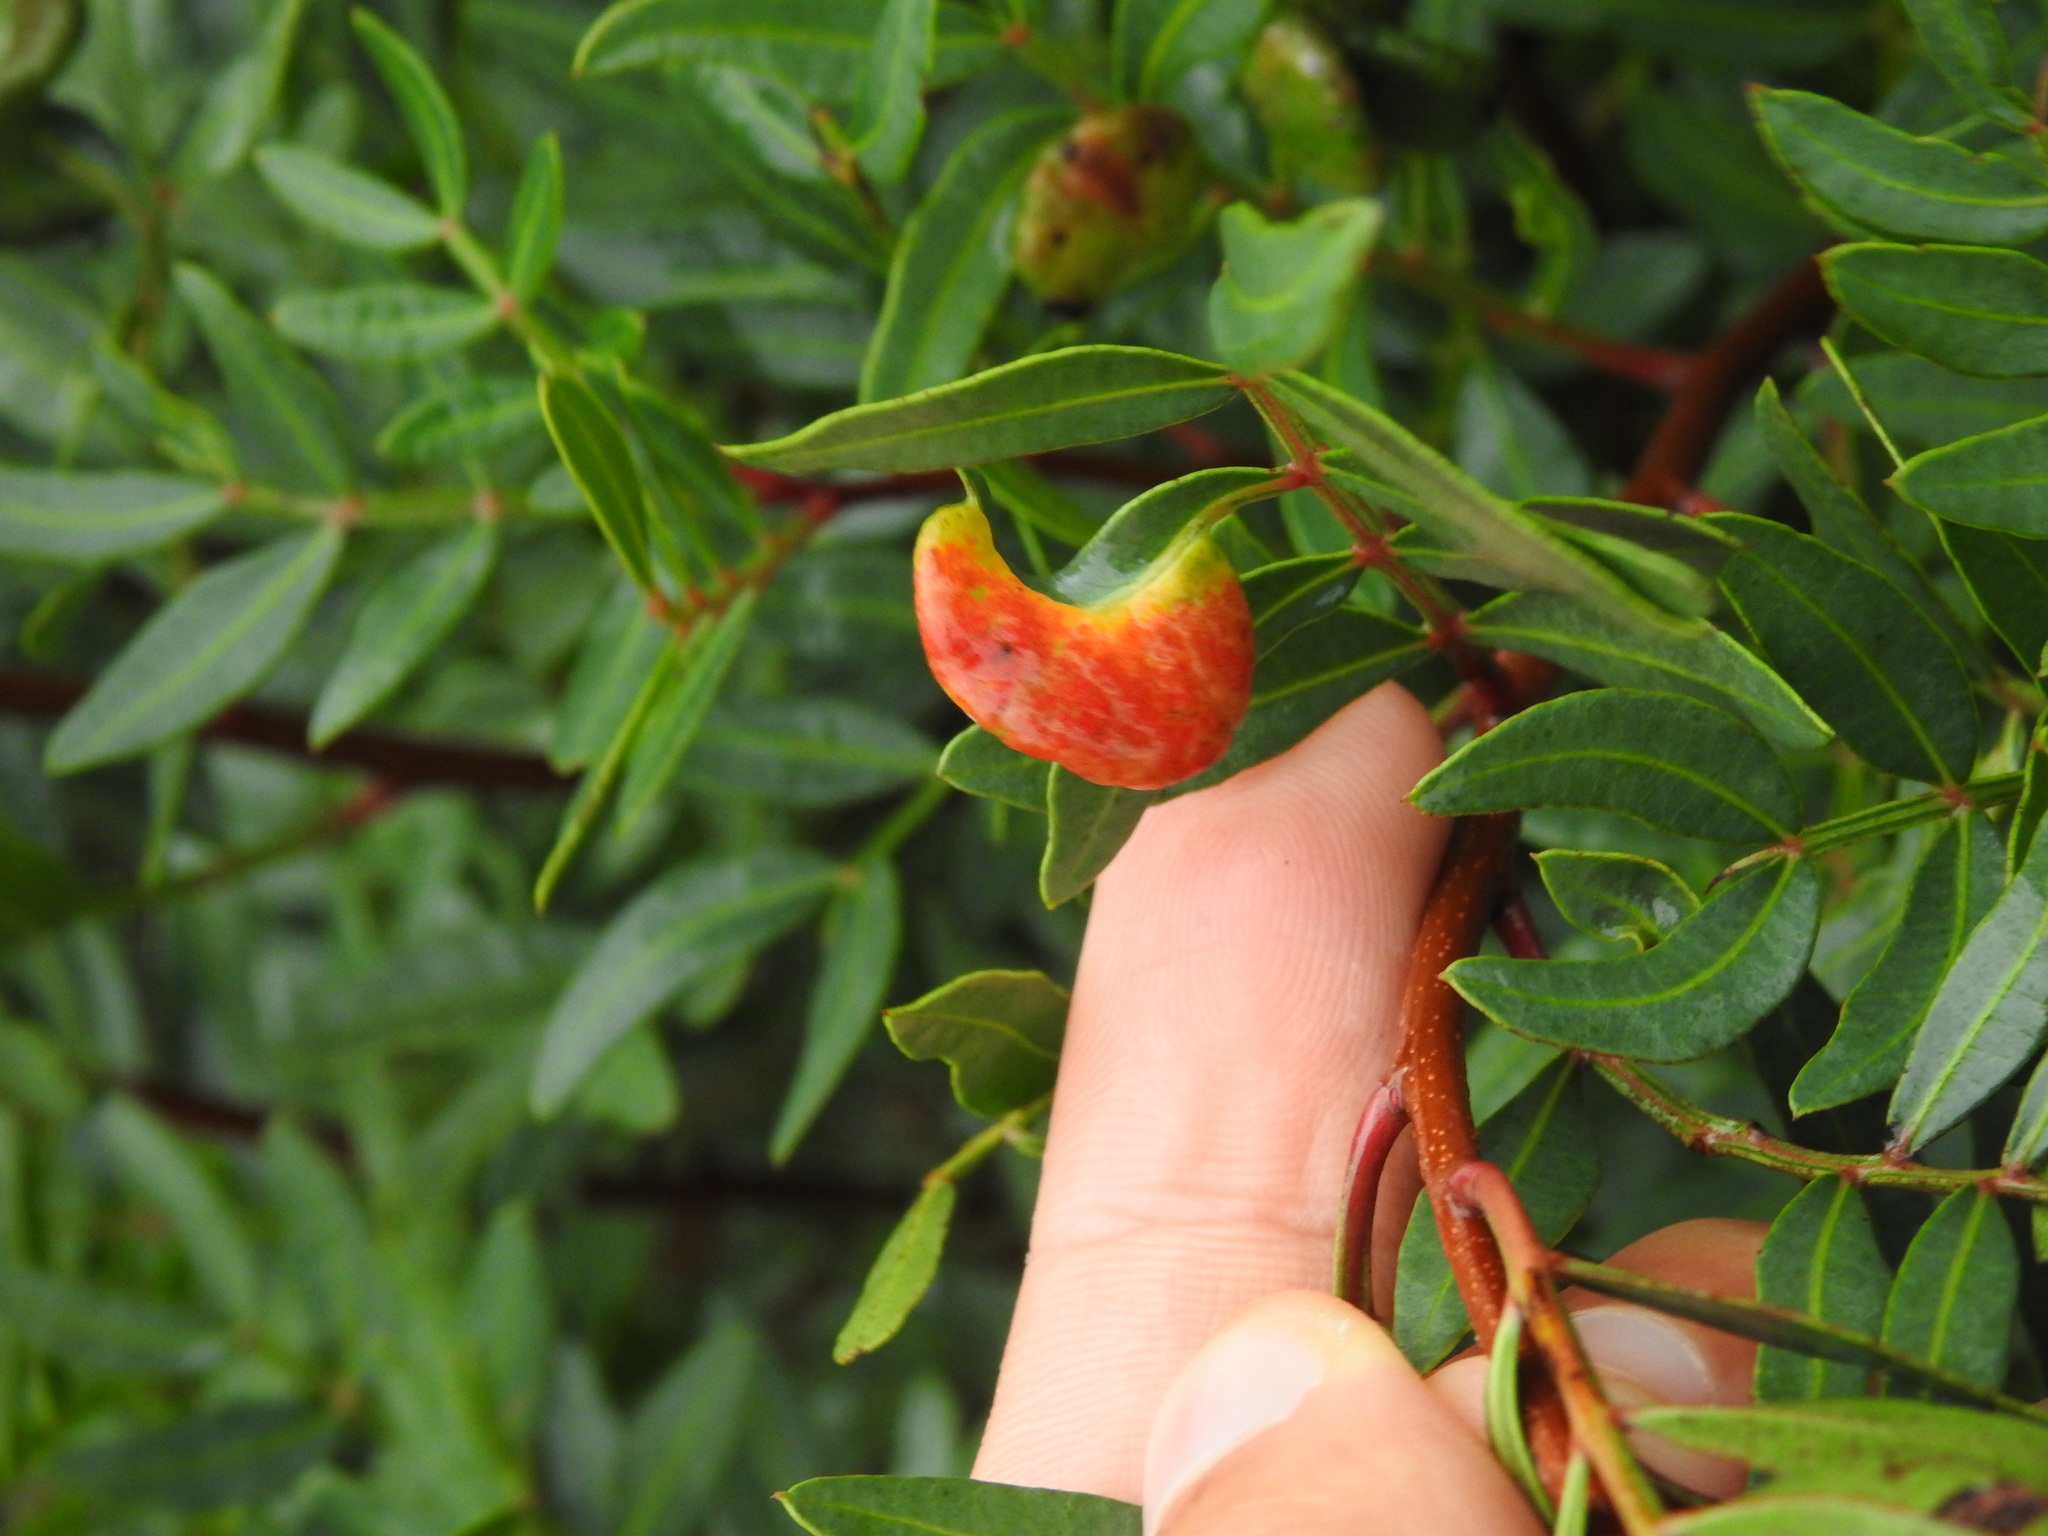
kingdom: Animalia
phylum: Arthropoda
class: Insecta
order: Hemiptera
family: Aphididae
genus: Aploneura
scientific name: Aploneura lentisci
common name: Mealy grass root aphid
